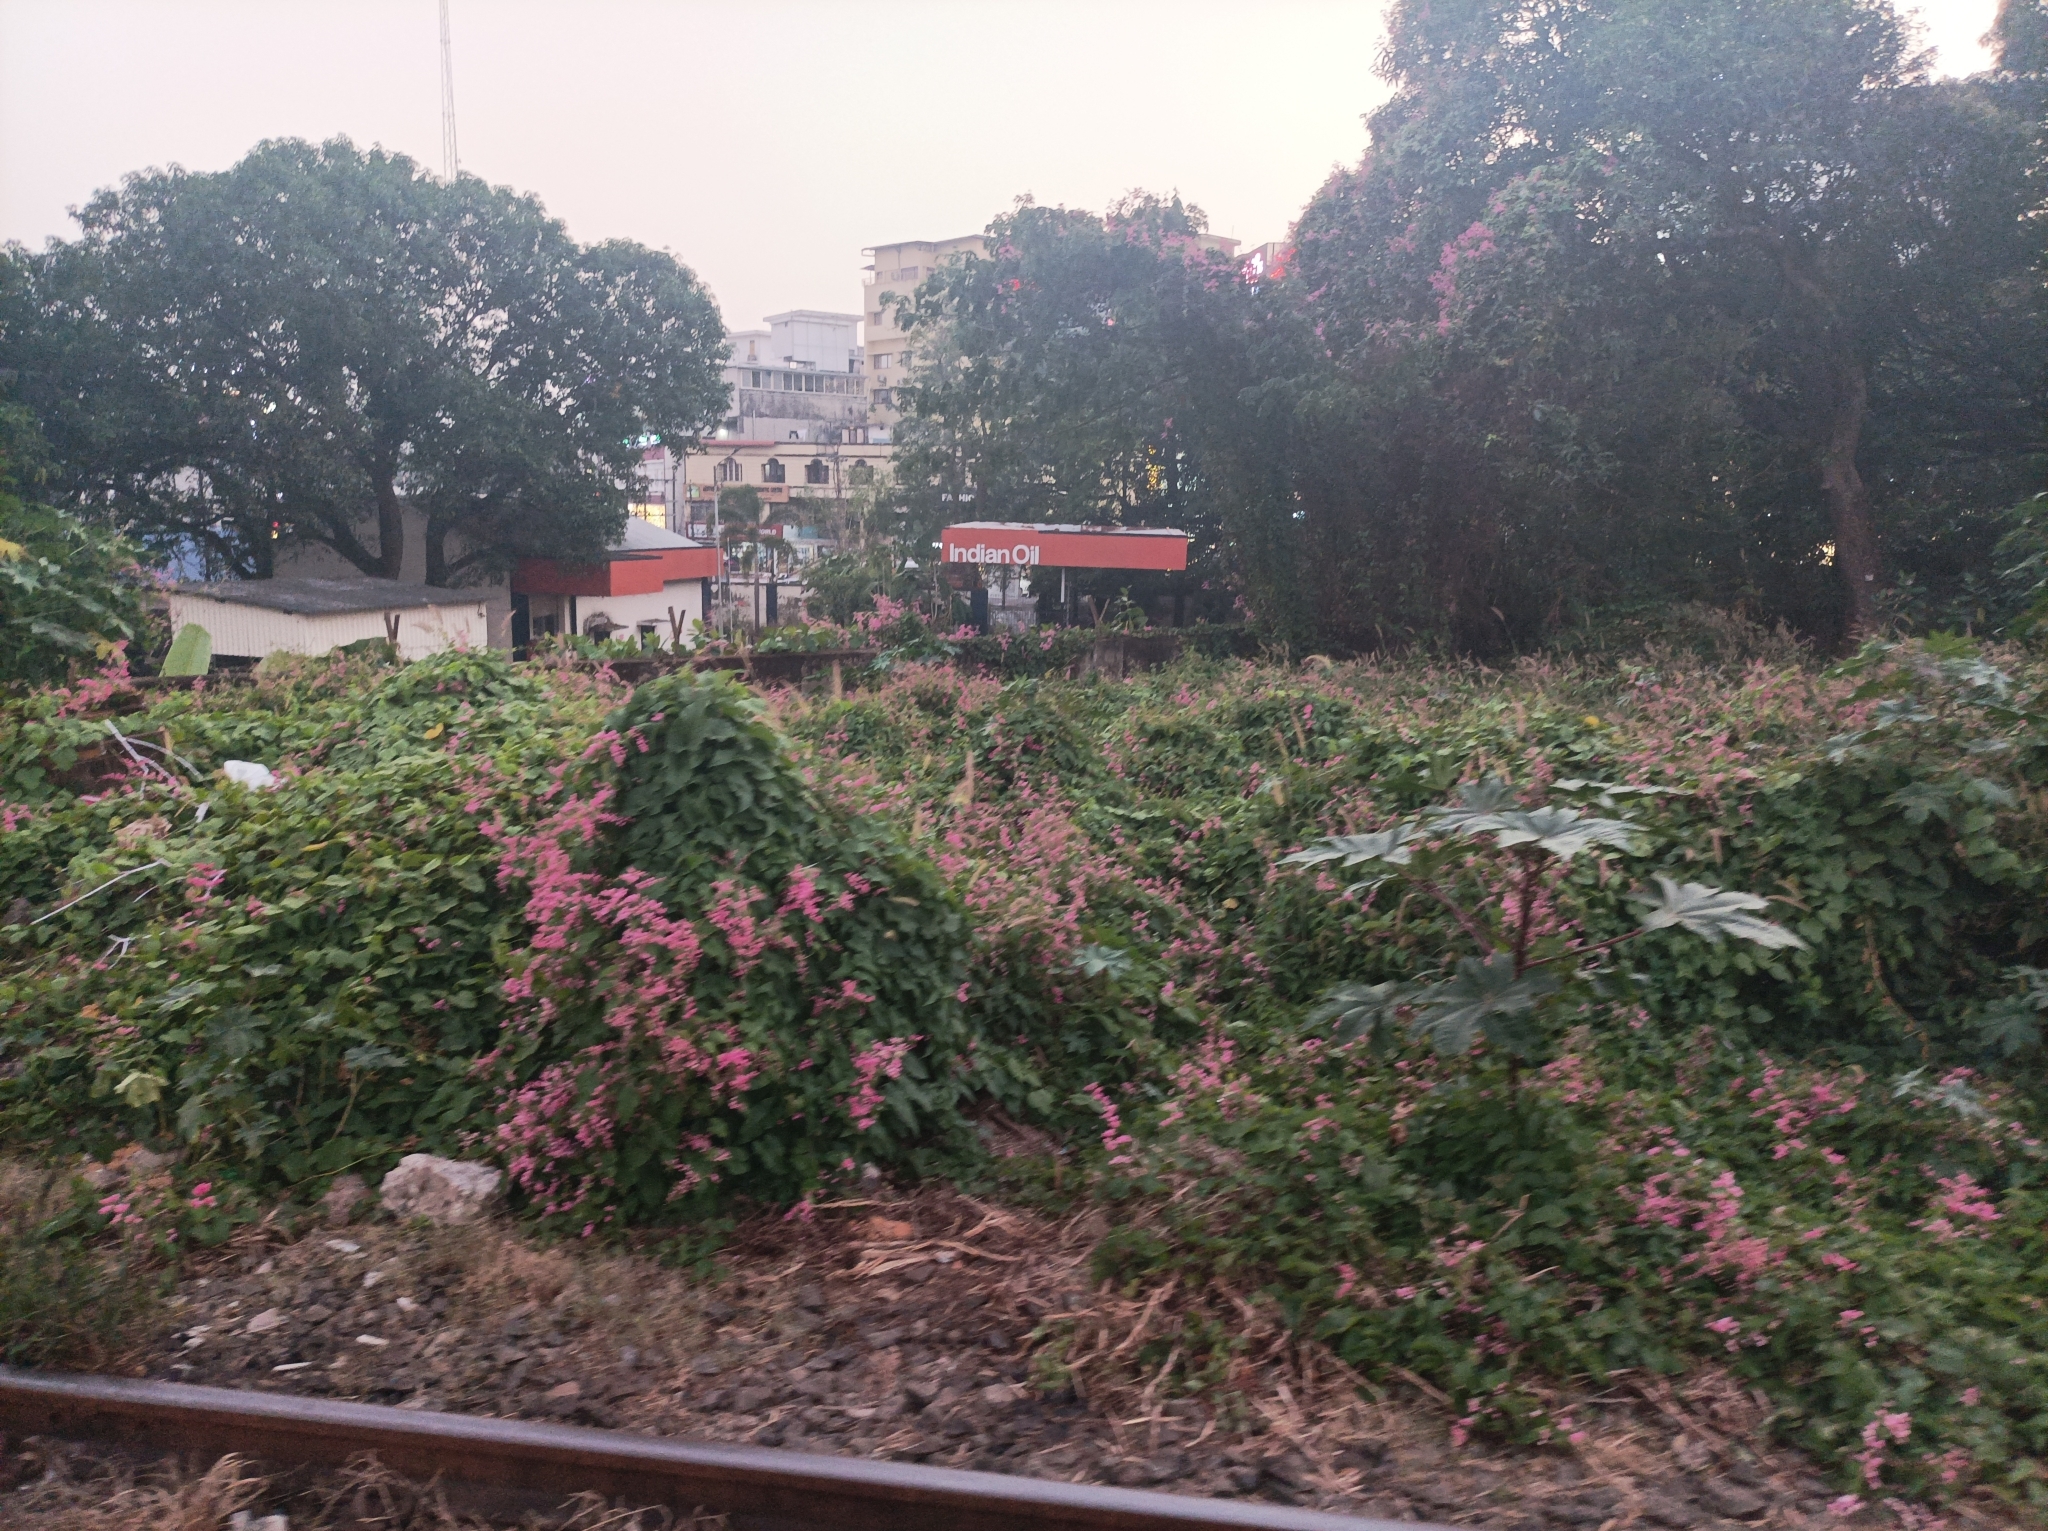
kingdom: Plantae
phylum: Tracheophyta
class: Magnoliopsida
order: Caryophyllales
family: Polygonaceae
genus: Antigonon
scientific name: Antigonon leptopus
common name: Coral vine
